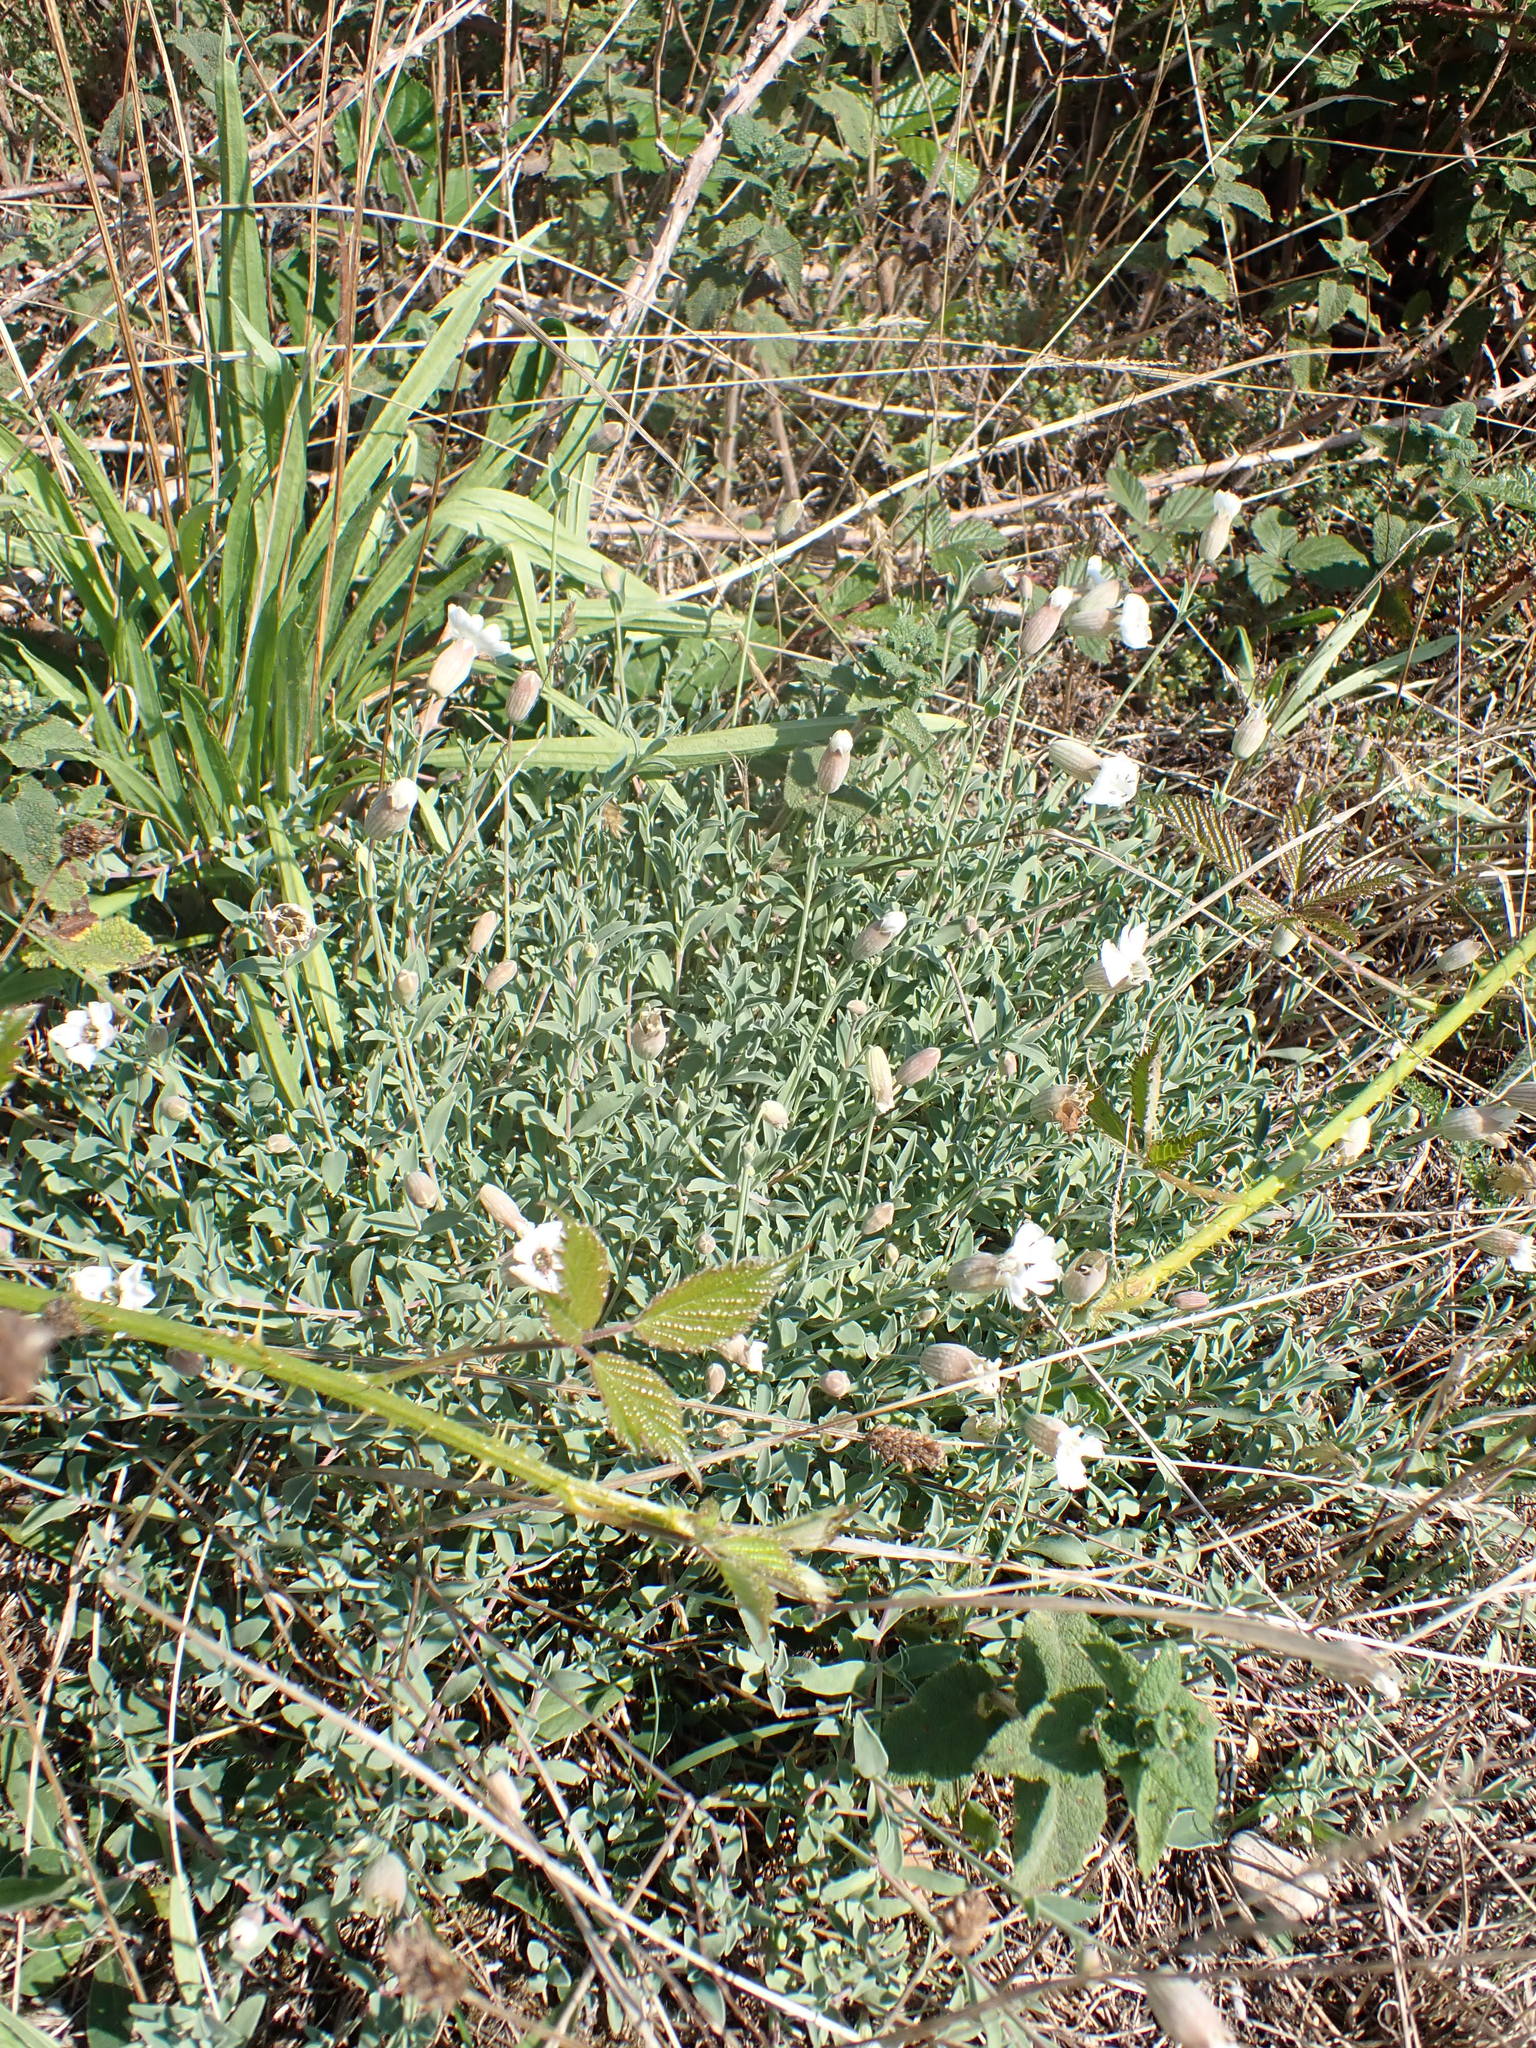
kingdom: Plantae
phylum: Tracheophyta
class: Magnoliopsida
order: Caryophyllales
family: Caryophyllaceae
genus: Silene
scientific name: Silene uniflora
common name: Sea campion
